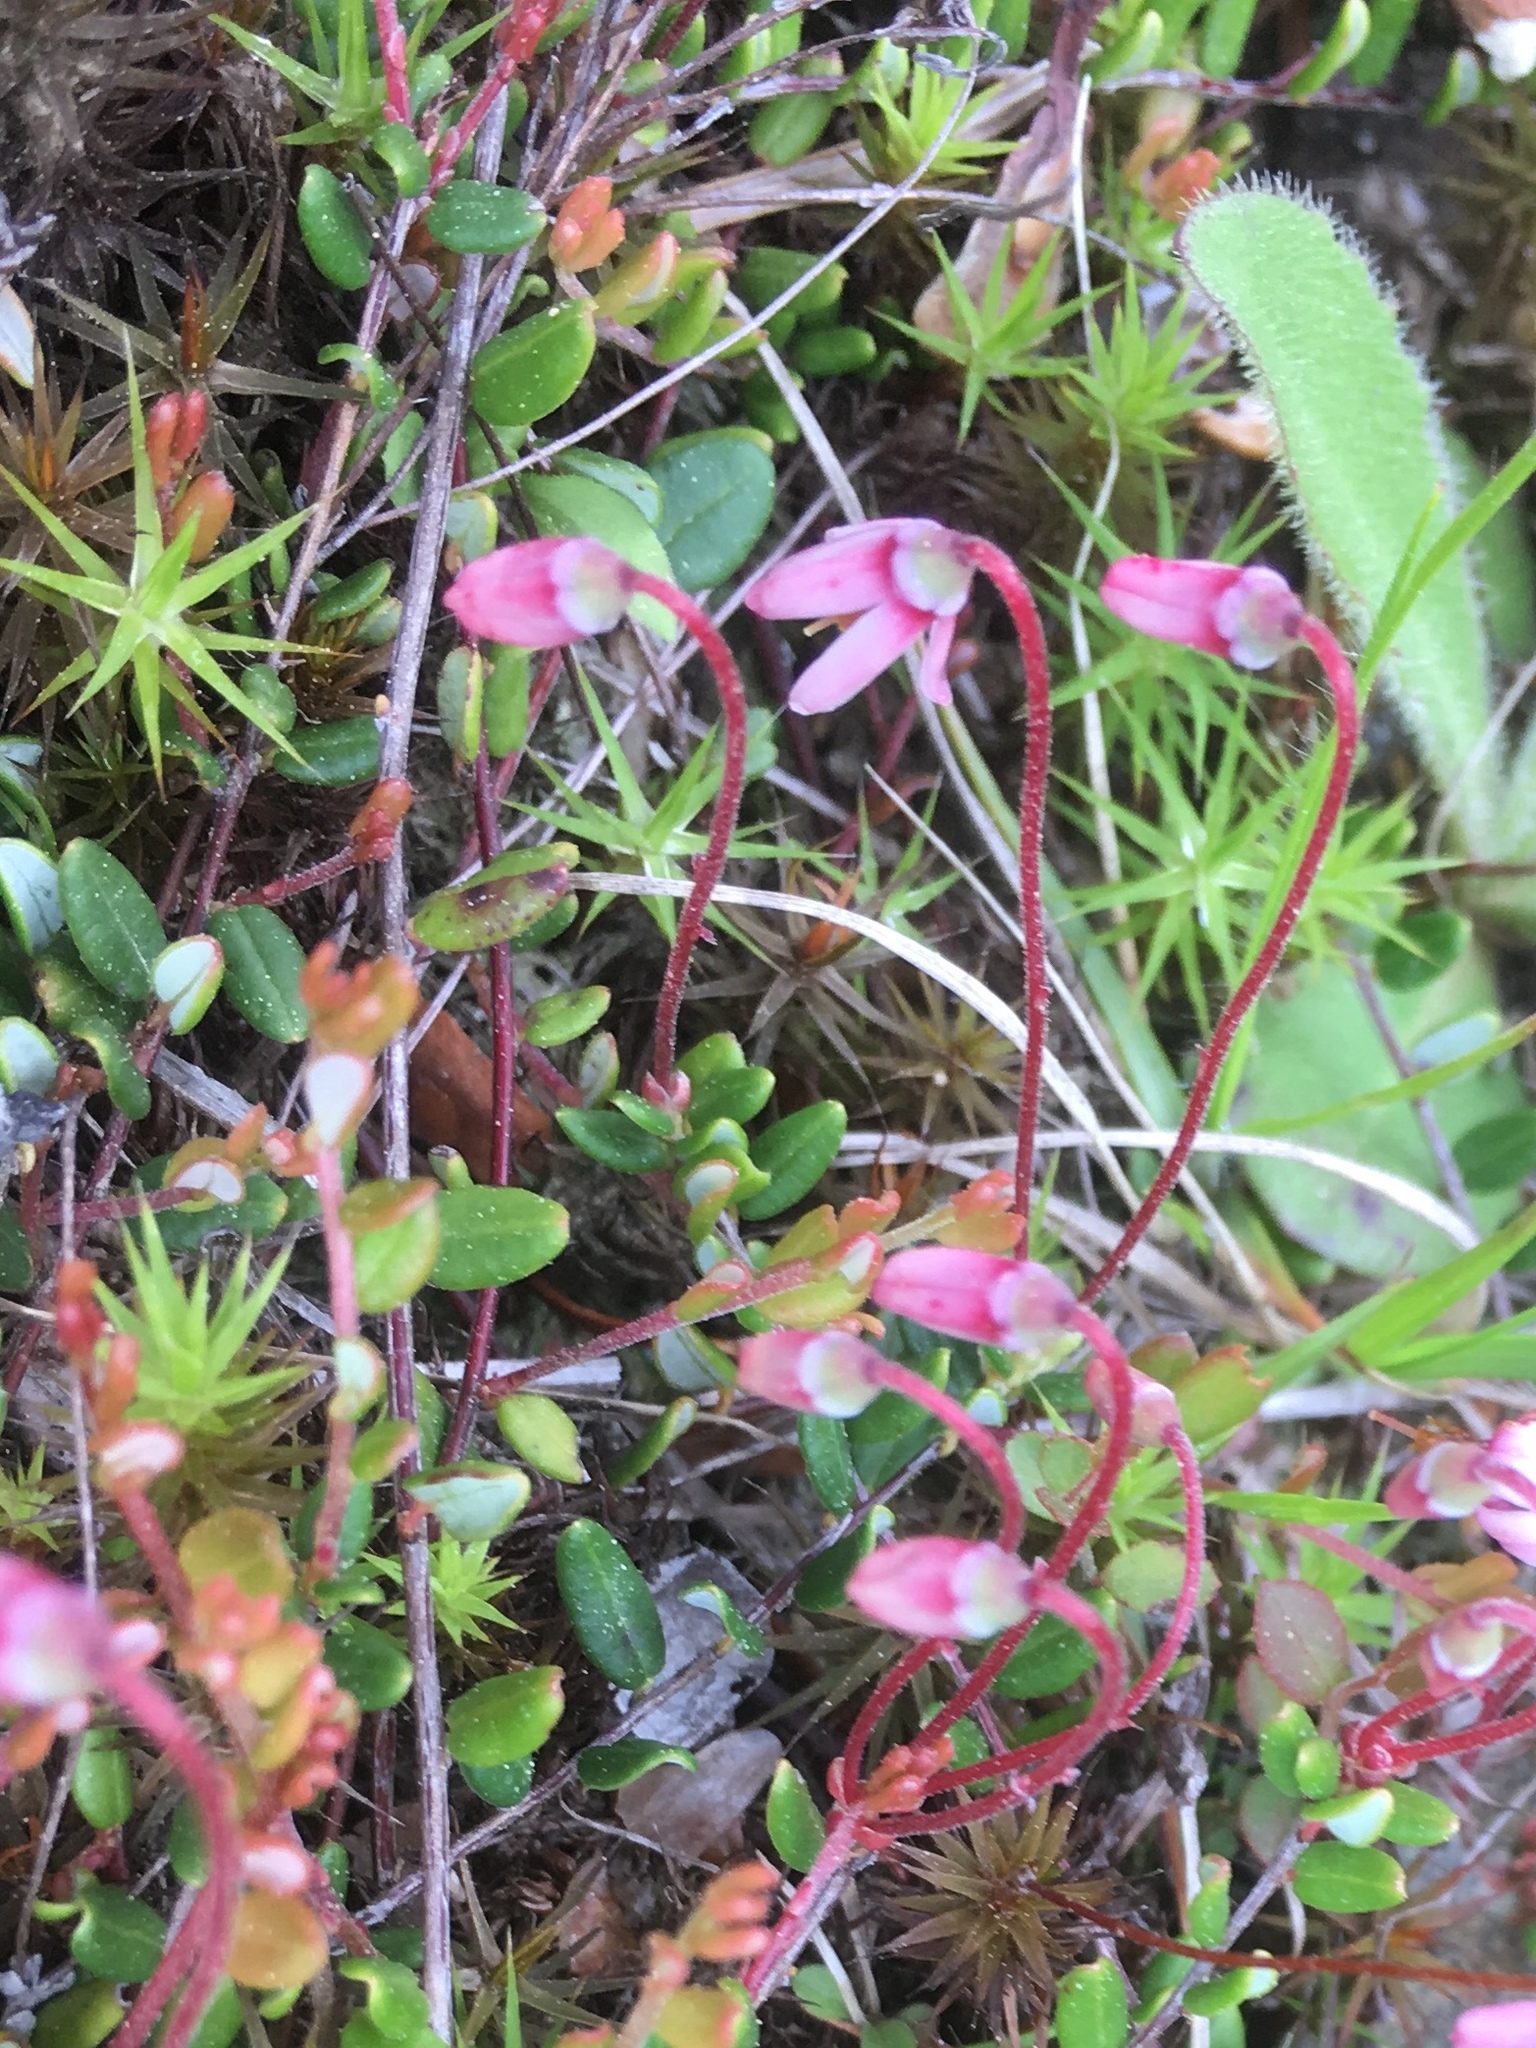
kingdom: Plantae
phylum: Tracheophyta
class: Magnoliopsida
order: Ericales
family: Ericaceae
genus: Vaccinium
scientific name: Vaccinium oxycoccos
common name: Cranberry
